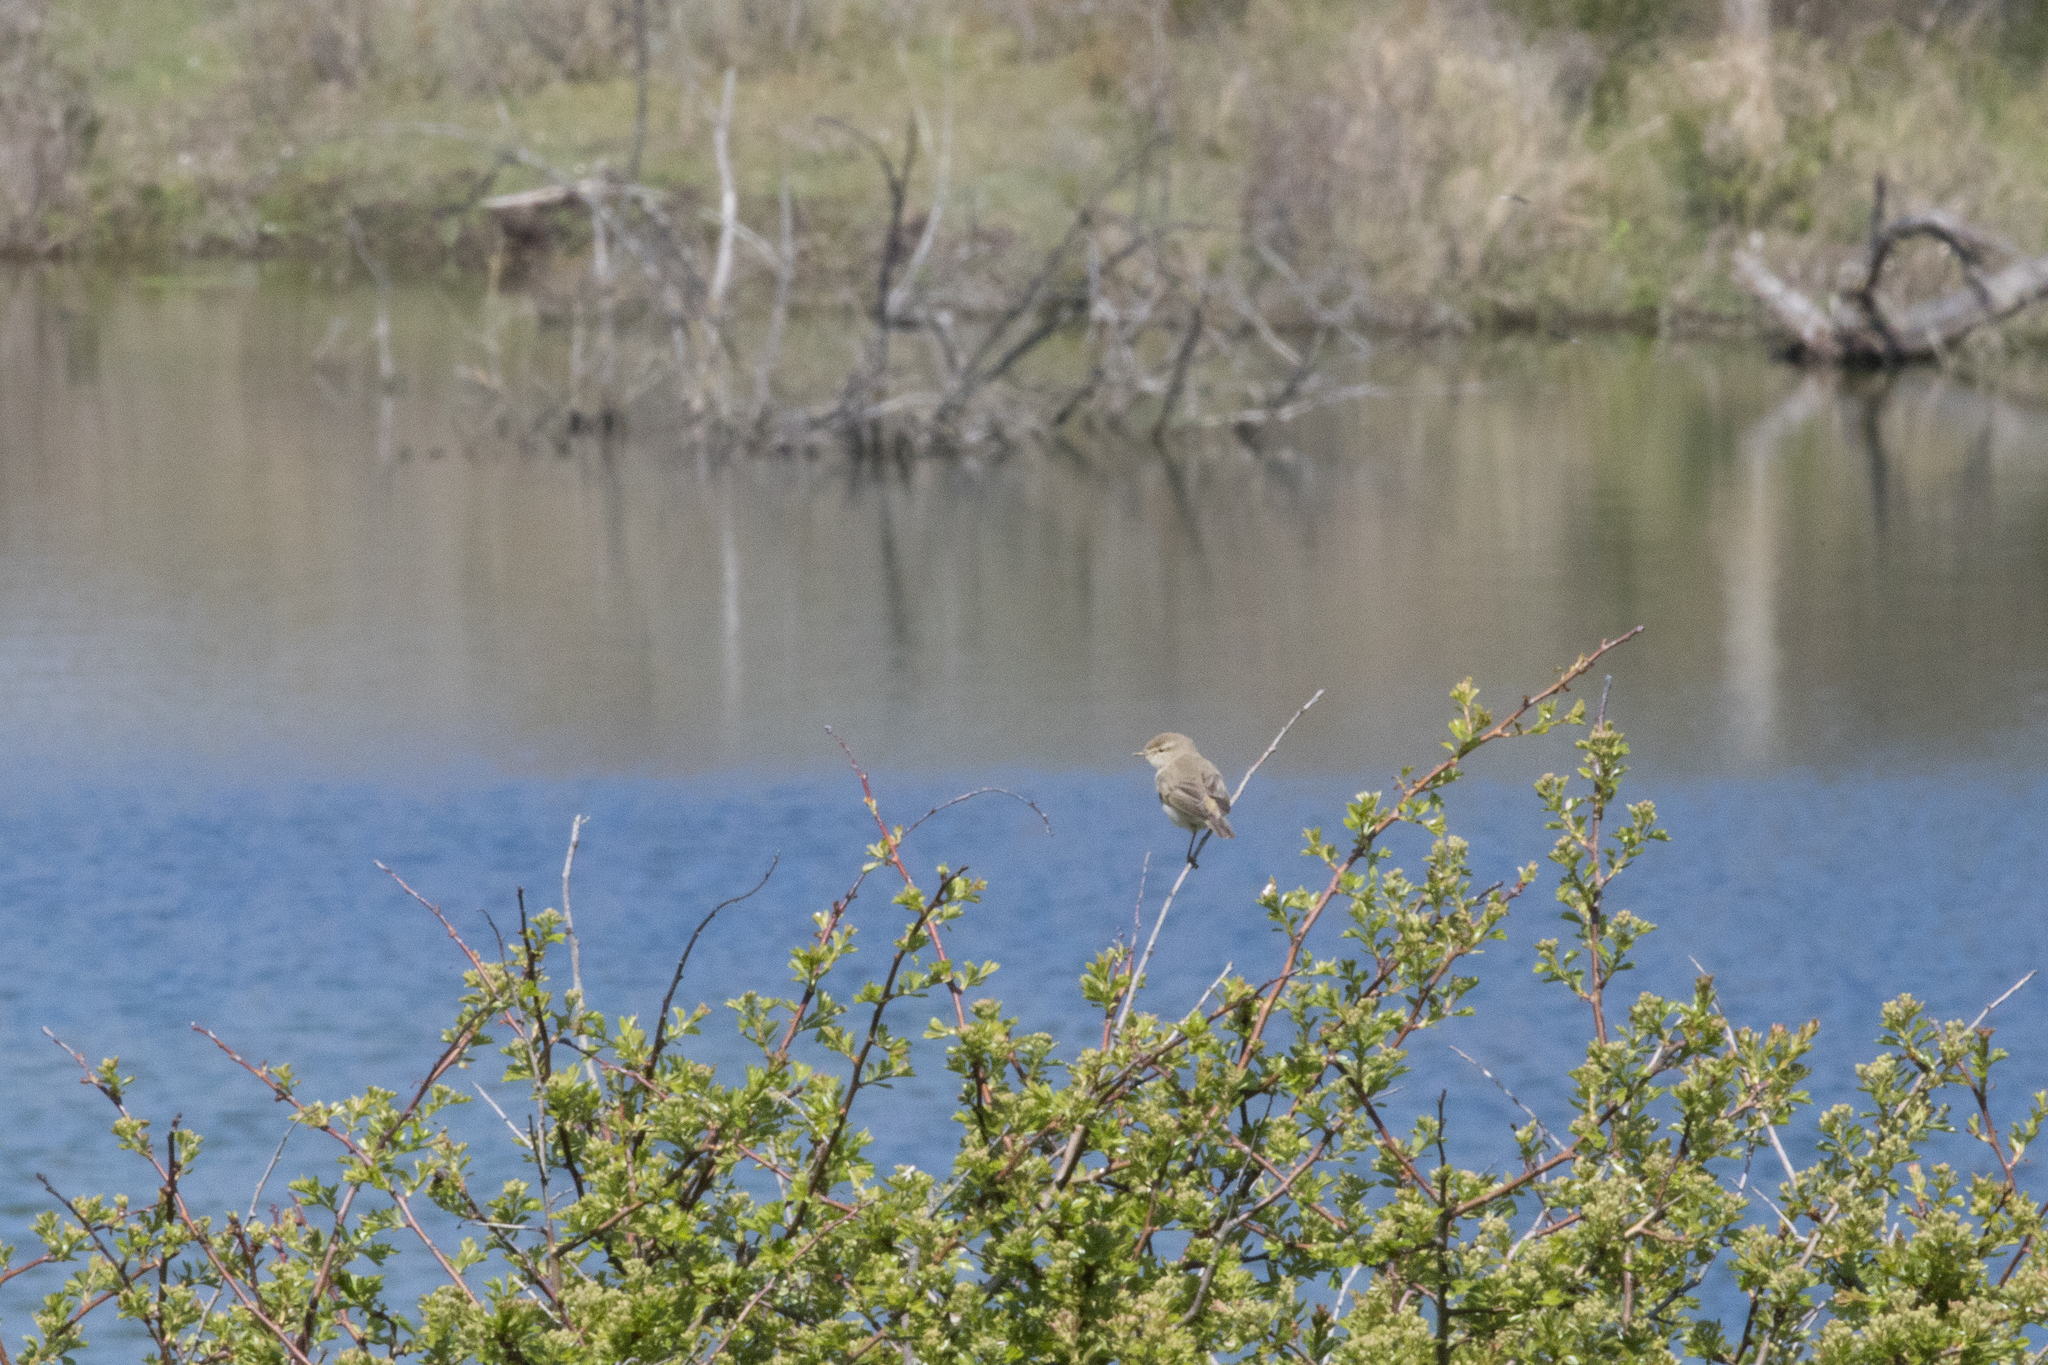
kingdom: Animalia
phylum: Chordata
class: Aves
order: Passeriformes
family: Phylloscopidae
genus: Phylloscopus
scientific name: Phylloscopus trochilus
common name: Willow warbler
